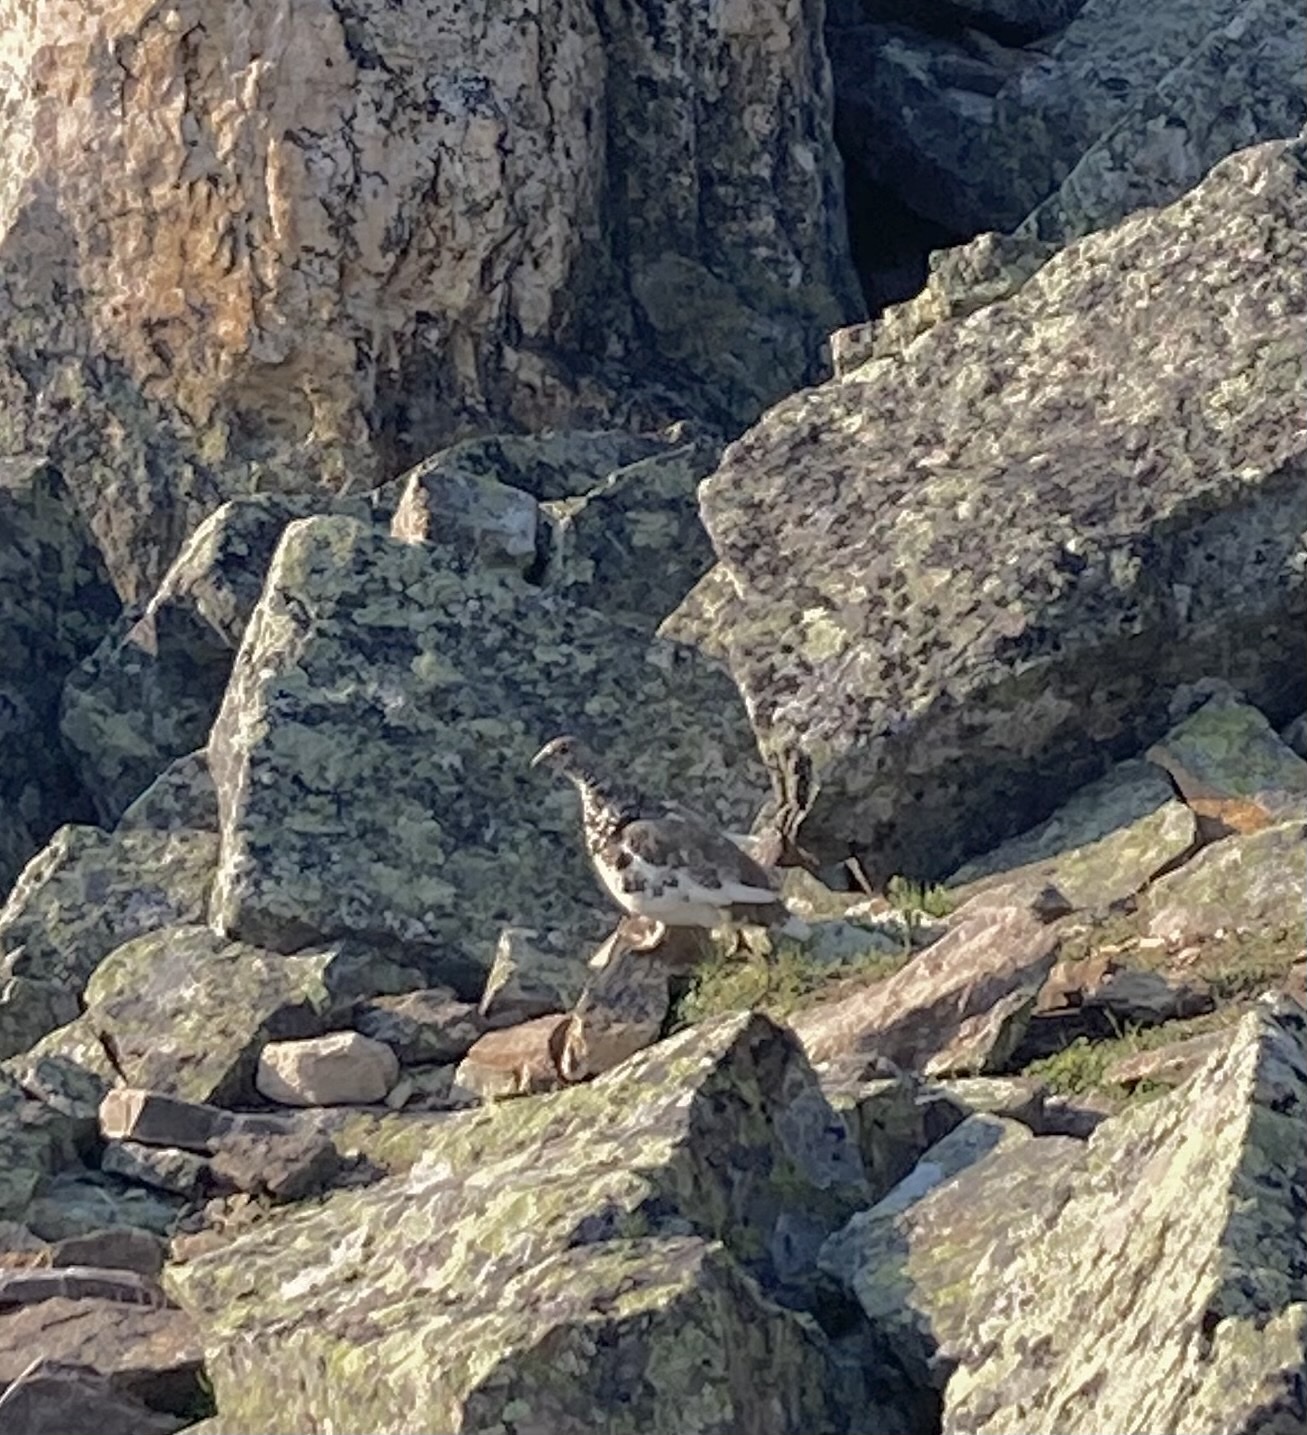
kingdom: Animalia
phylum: Chordata
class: Aves
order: Galliformes
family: Phasianidae
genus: Lagopus
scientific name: Lagopus leucura
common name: White-tailed ptarmigan
